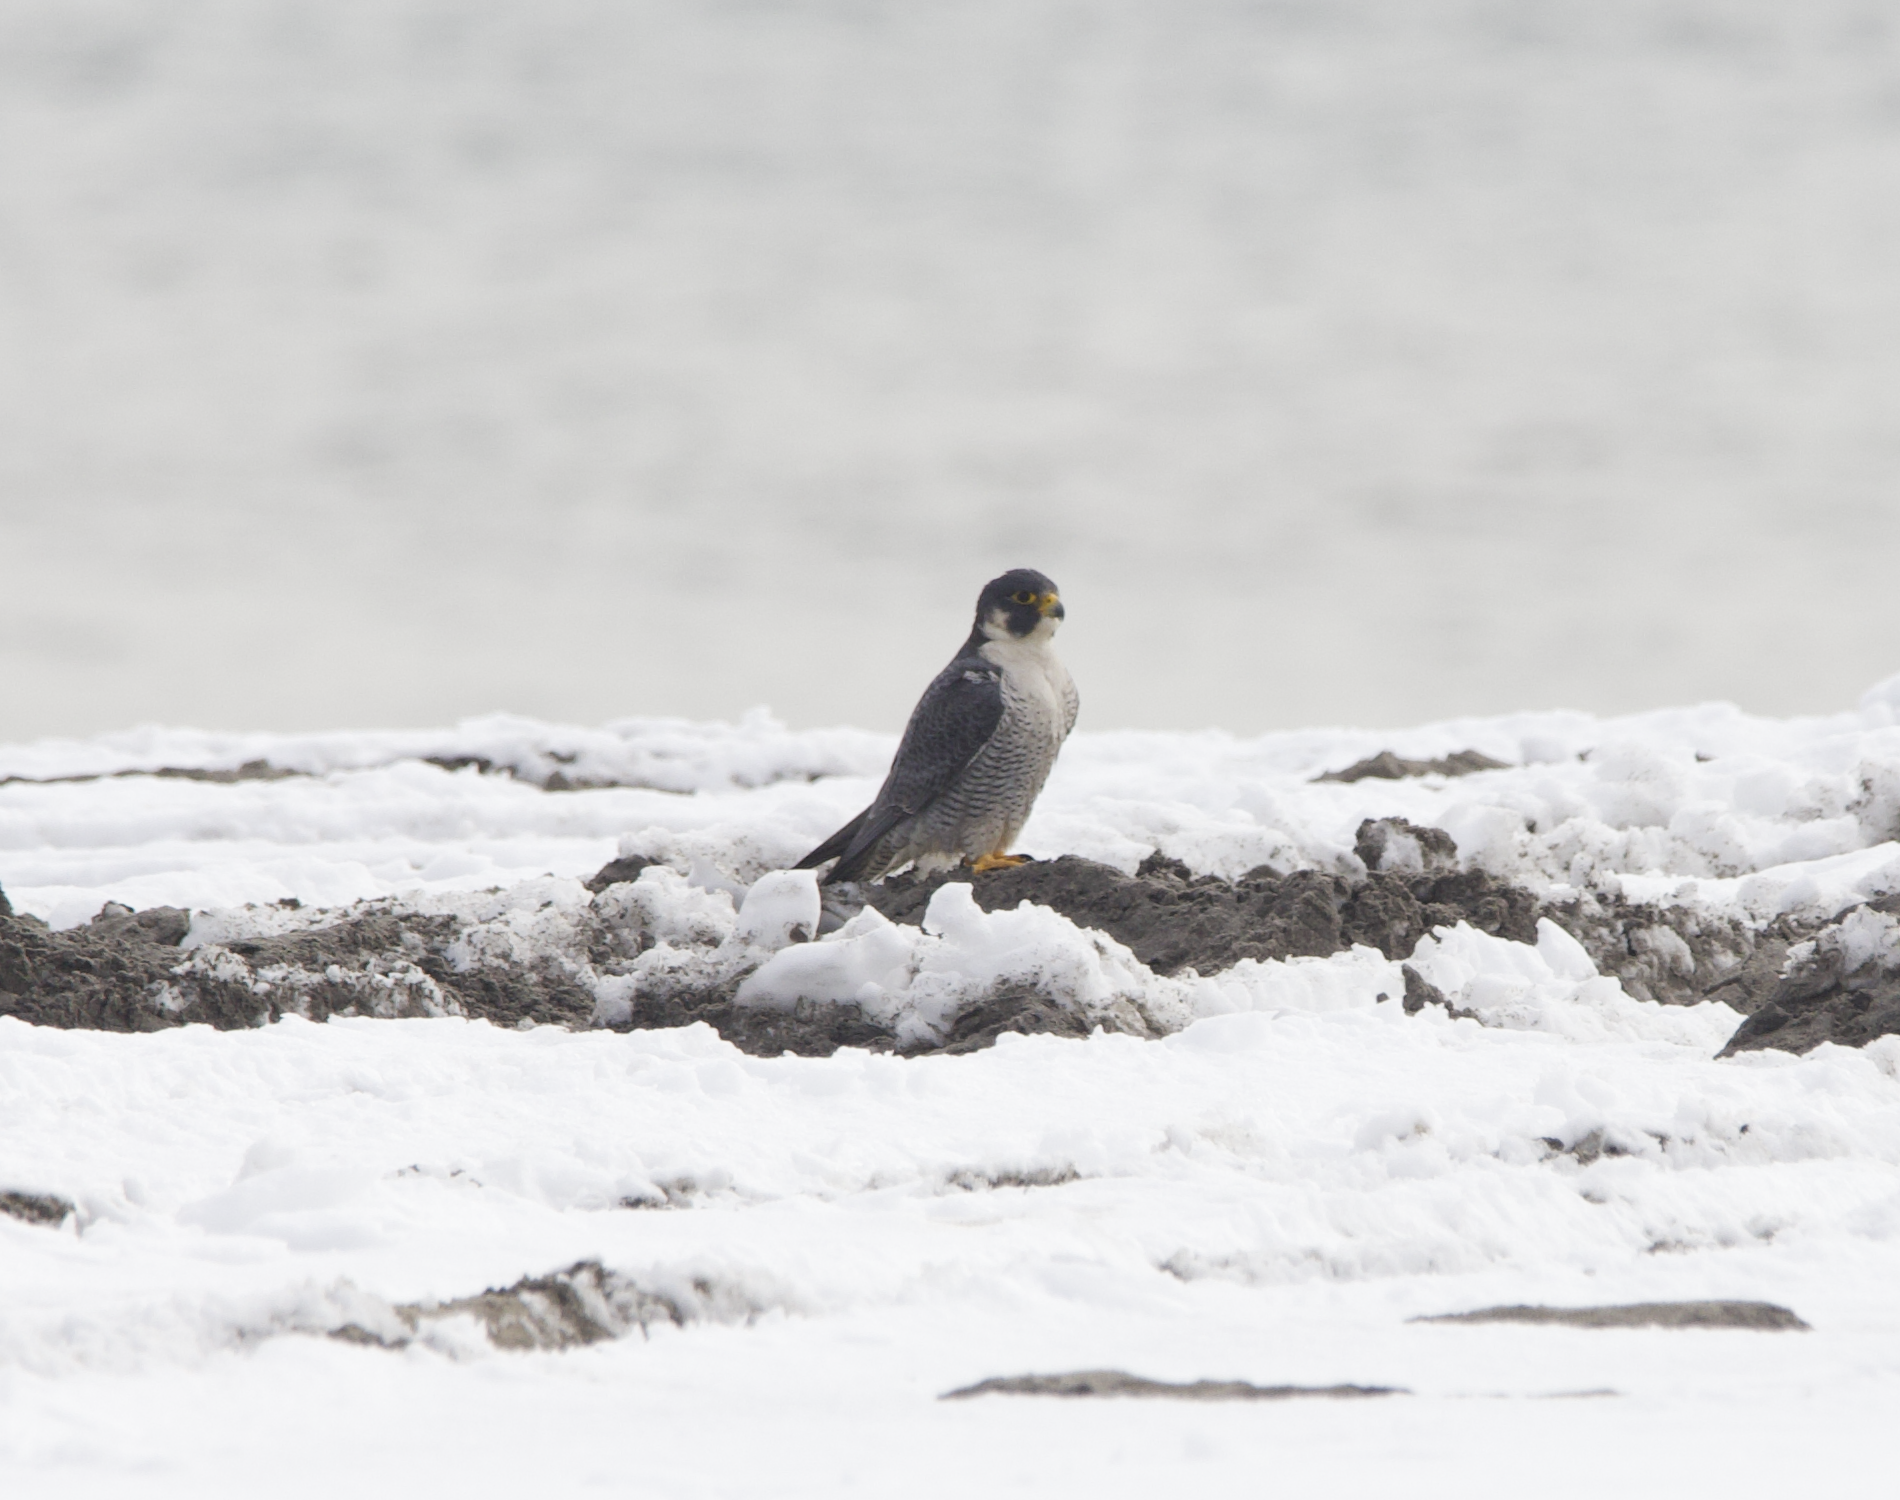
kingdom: Animalia
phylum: Chordata
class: Aves
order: Falconiformes
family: Falconidae
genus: Falco
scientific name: Falco peregrinus
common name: Peregrine falcon
